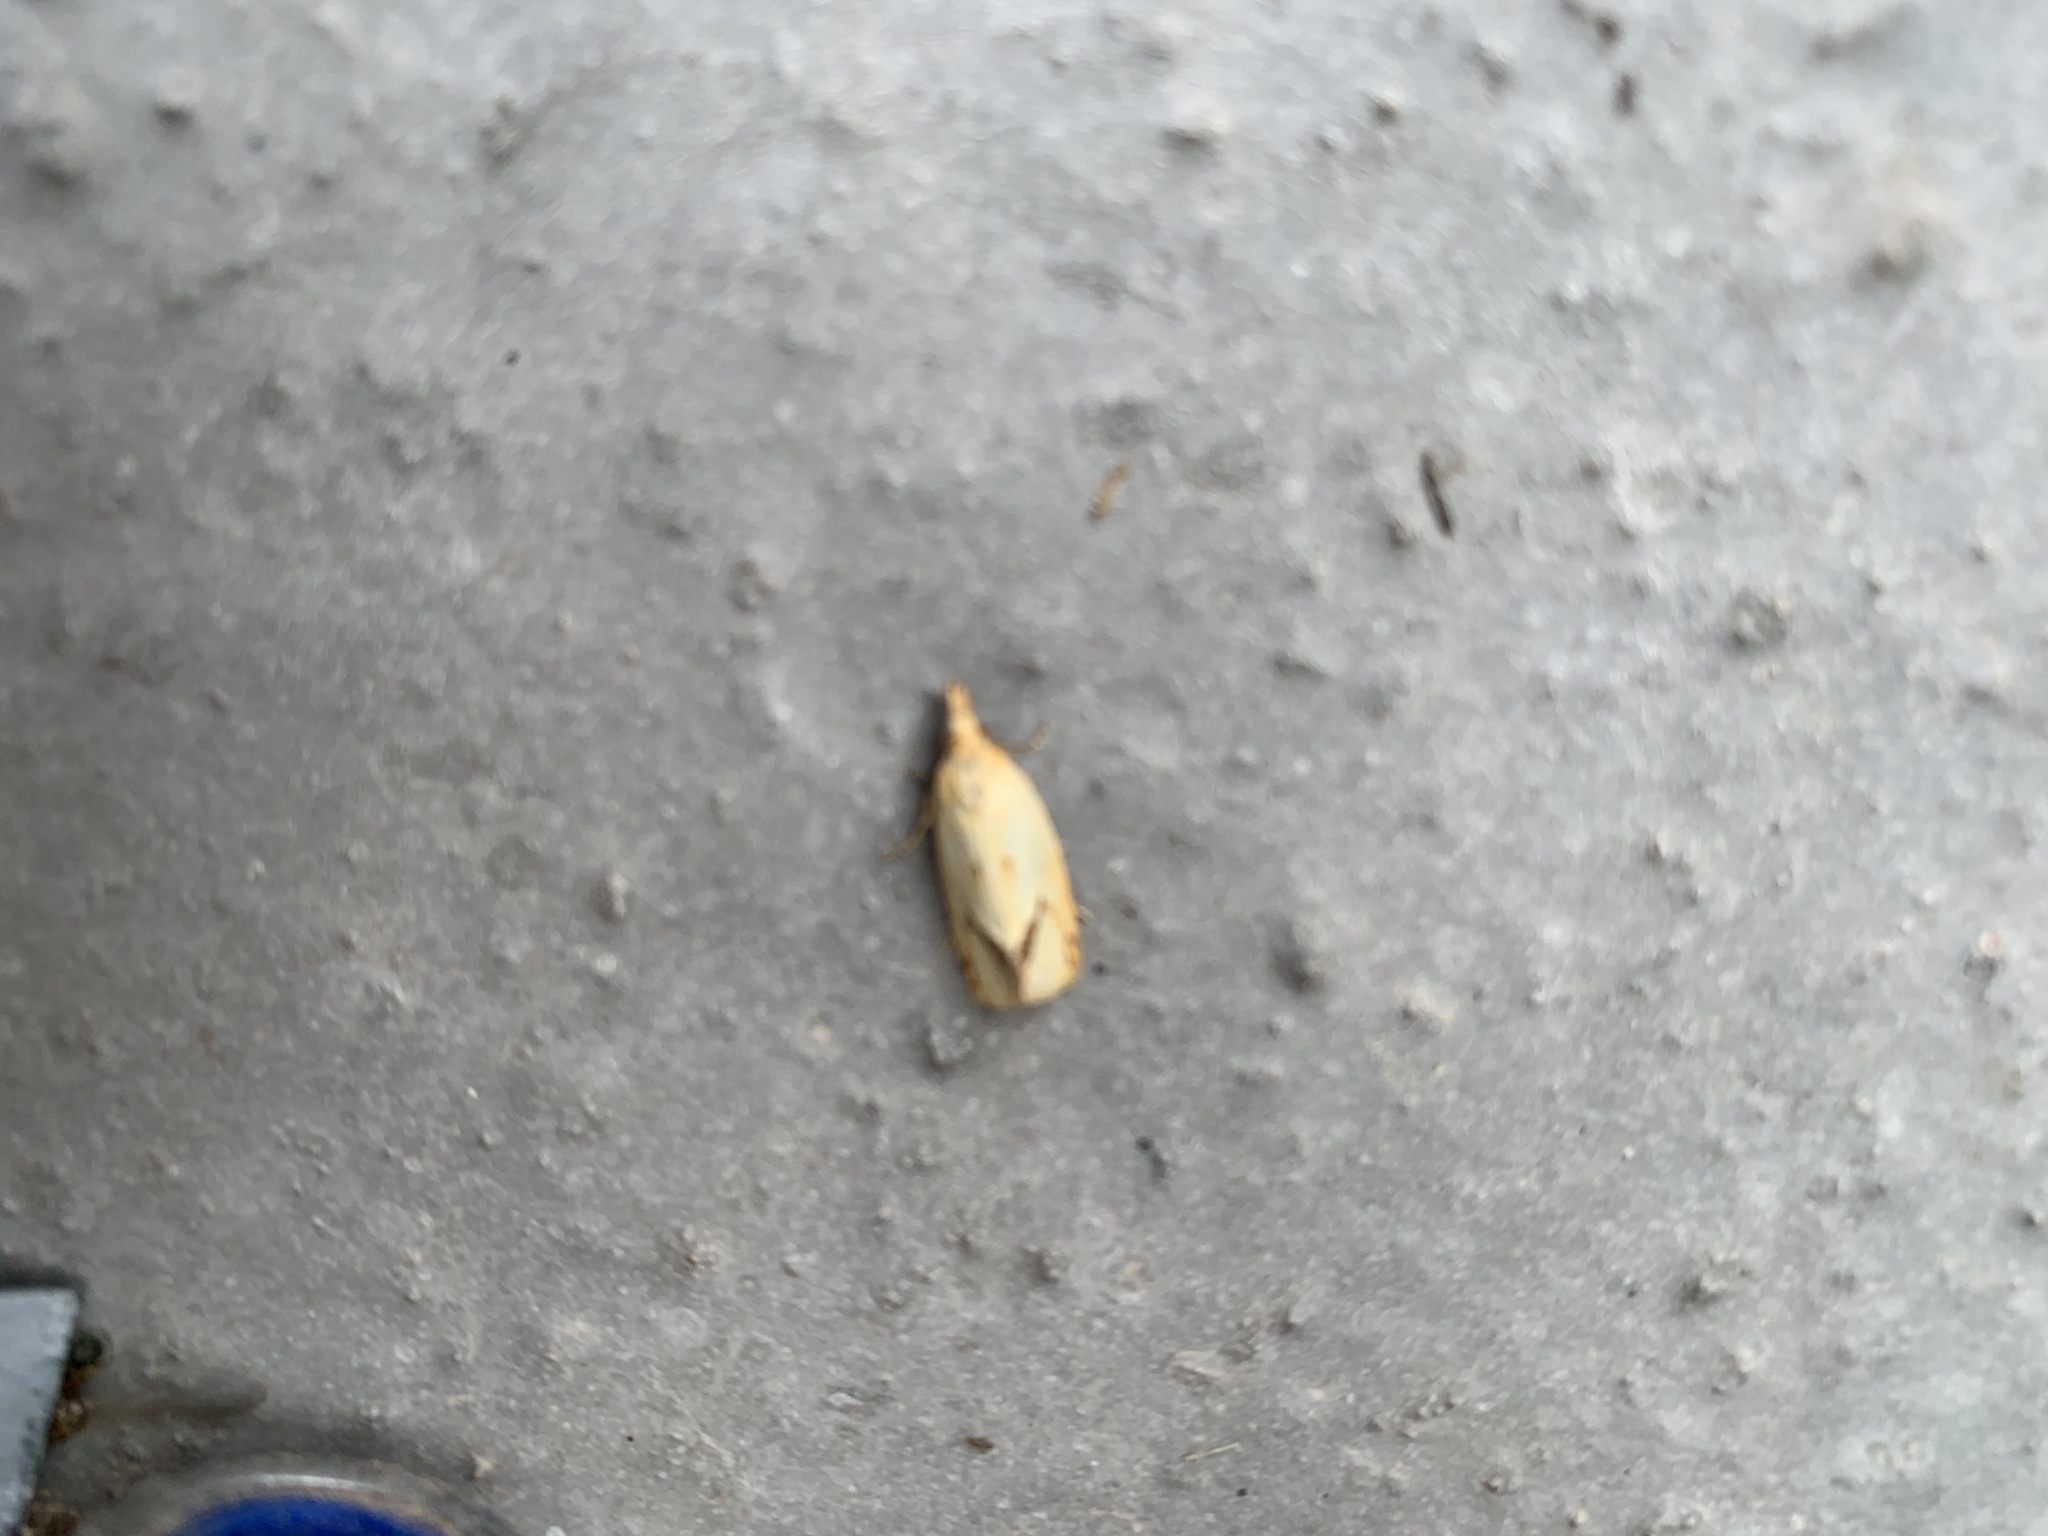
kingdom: Animalia
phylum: Arthropoda
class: Insecta
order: Lepidoptera
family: Tortricidae
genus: Agapeta
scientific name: Agapeta hamana
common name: Common yellow conch
